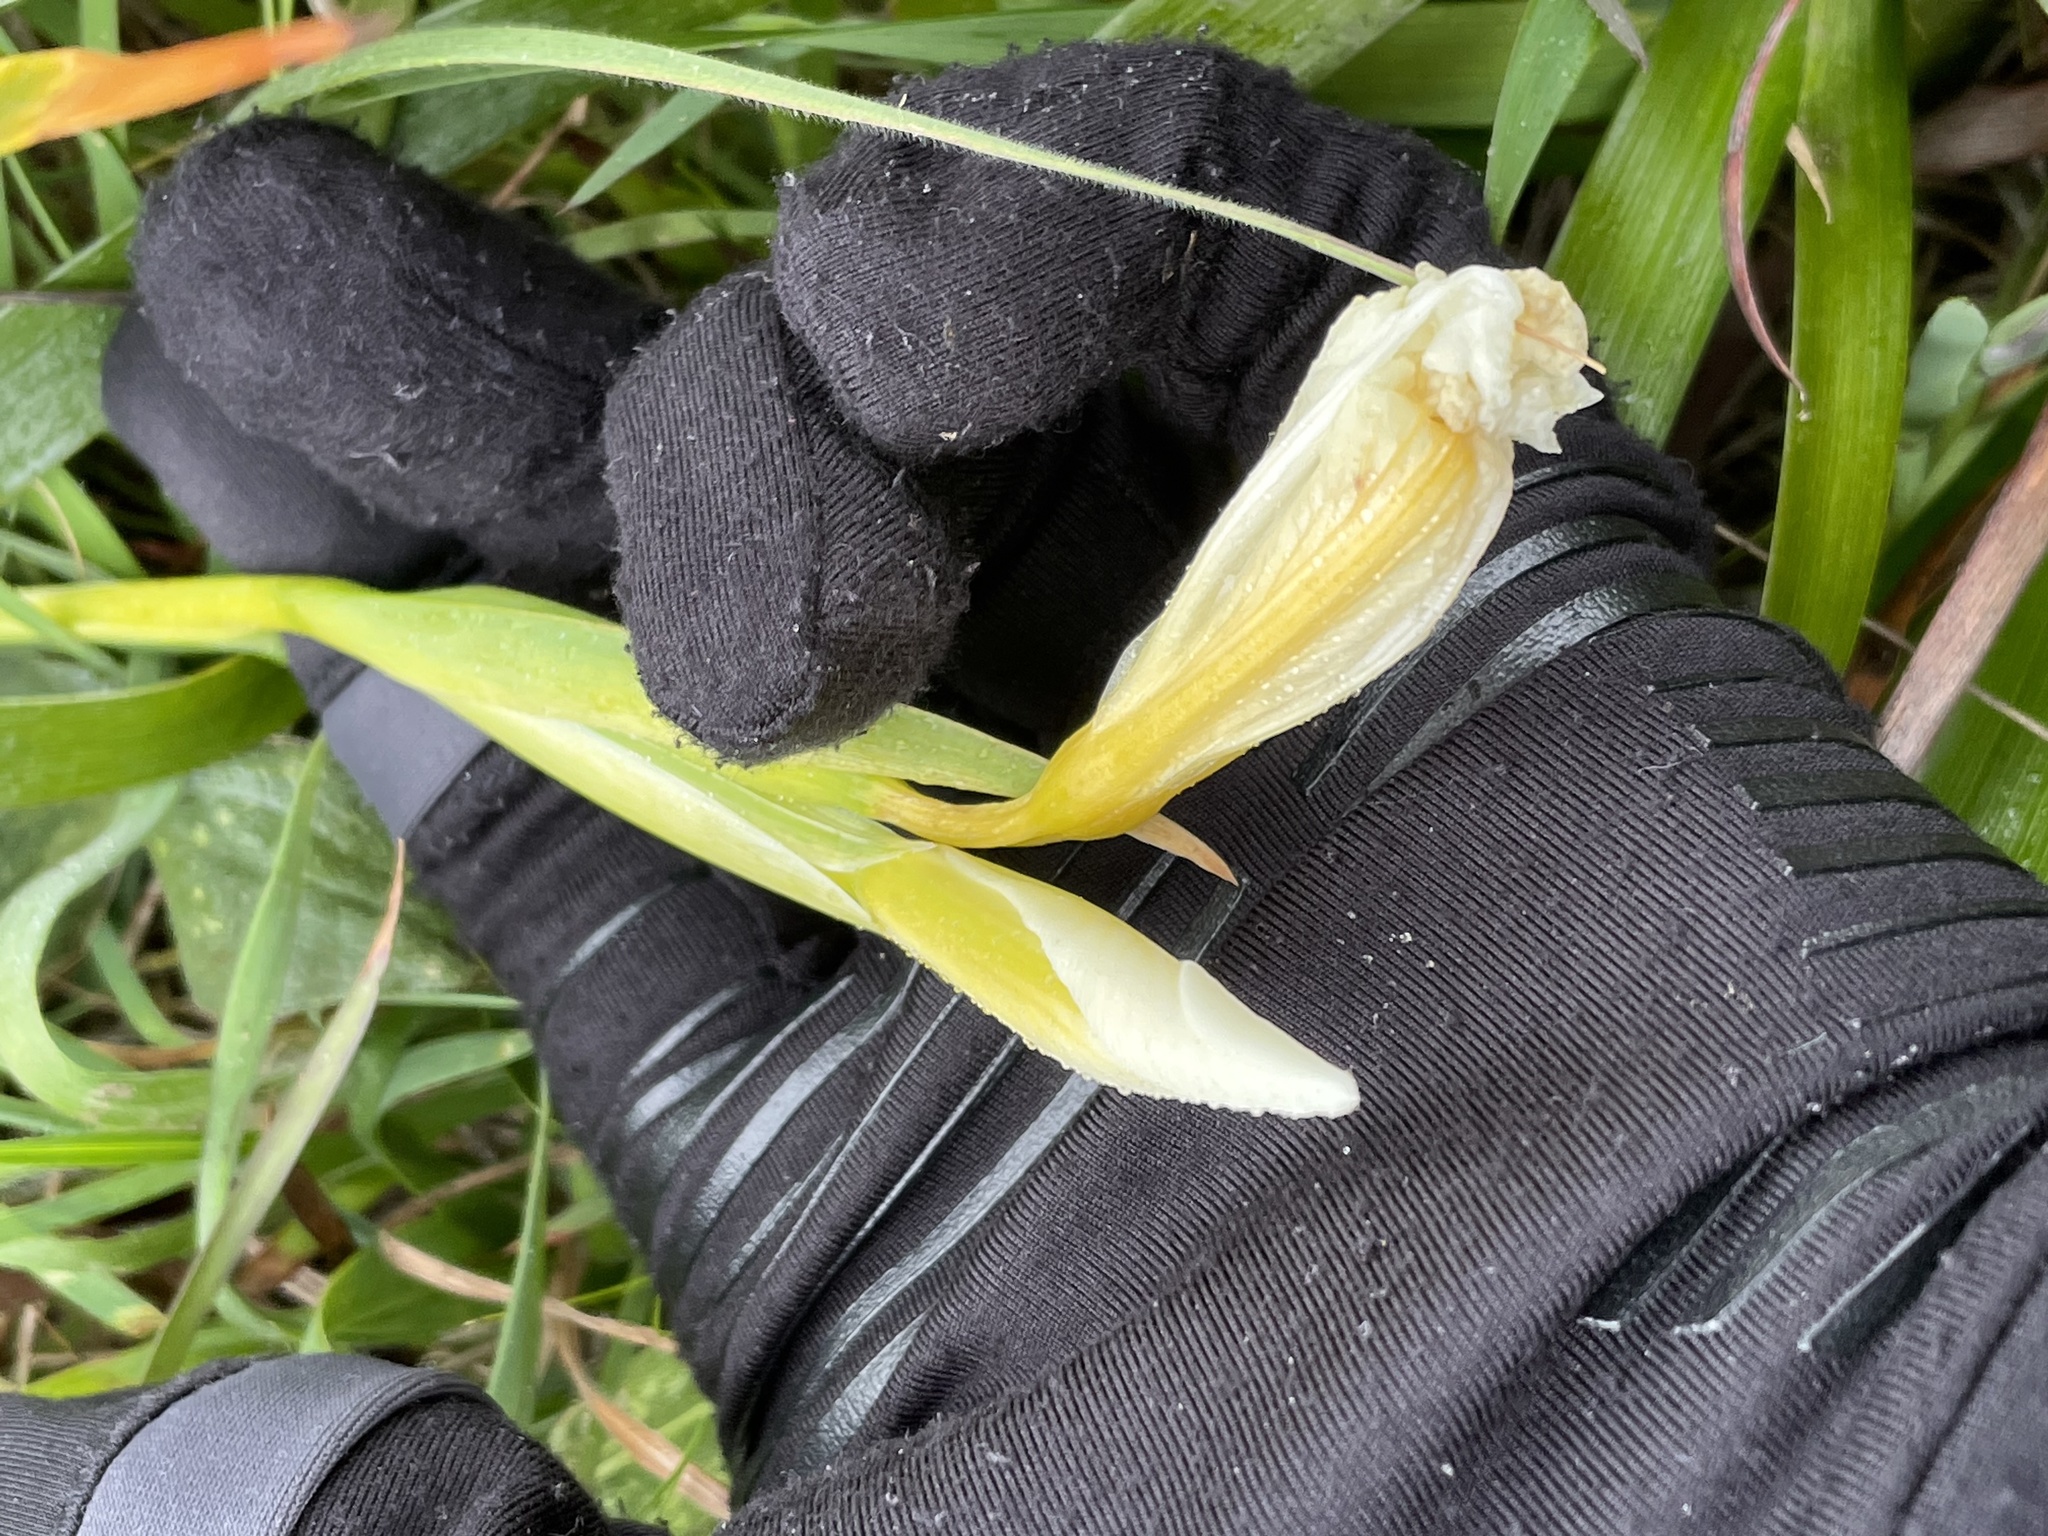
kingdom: Plantae
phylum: Tracheophyta
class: Liliopsida
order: Asparagales
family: Iridaceae
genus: Iris
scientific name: Iris douglasiana
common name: Marin iris
